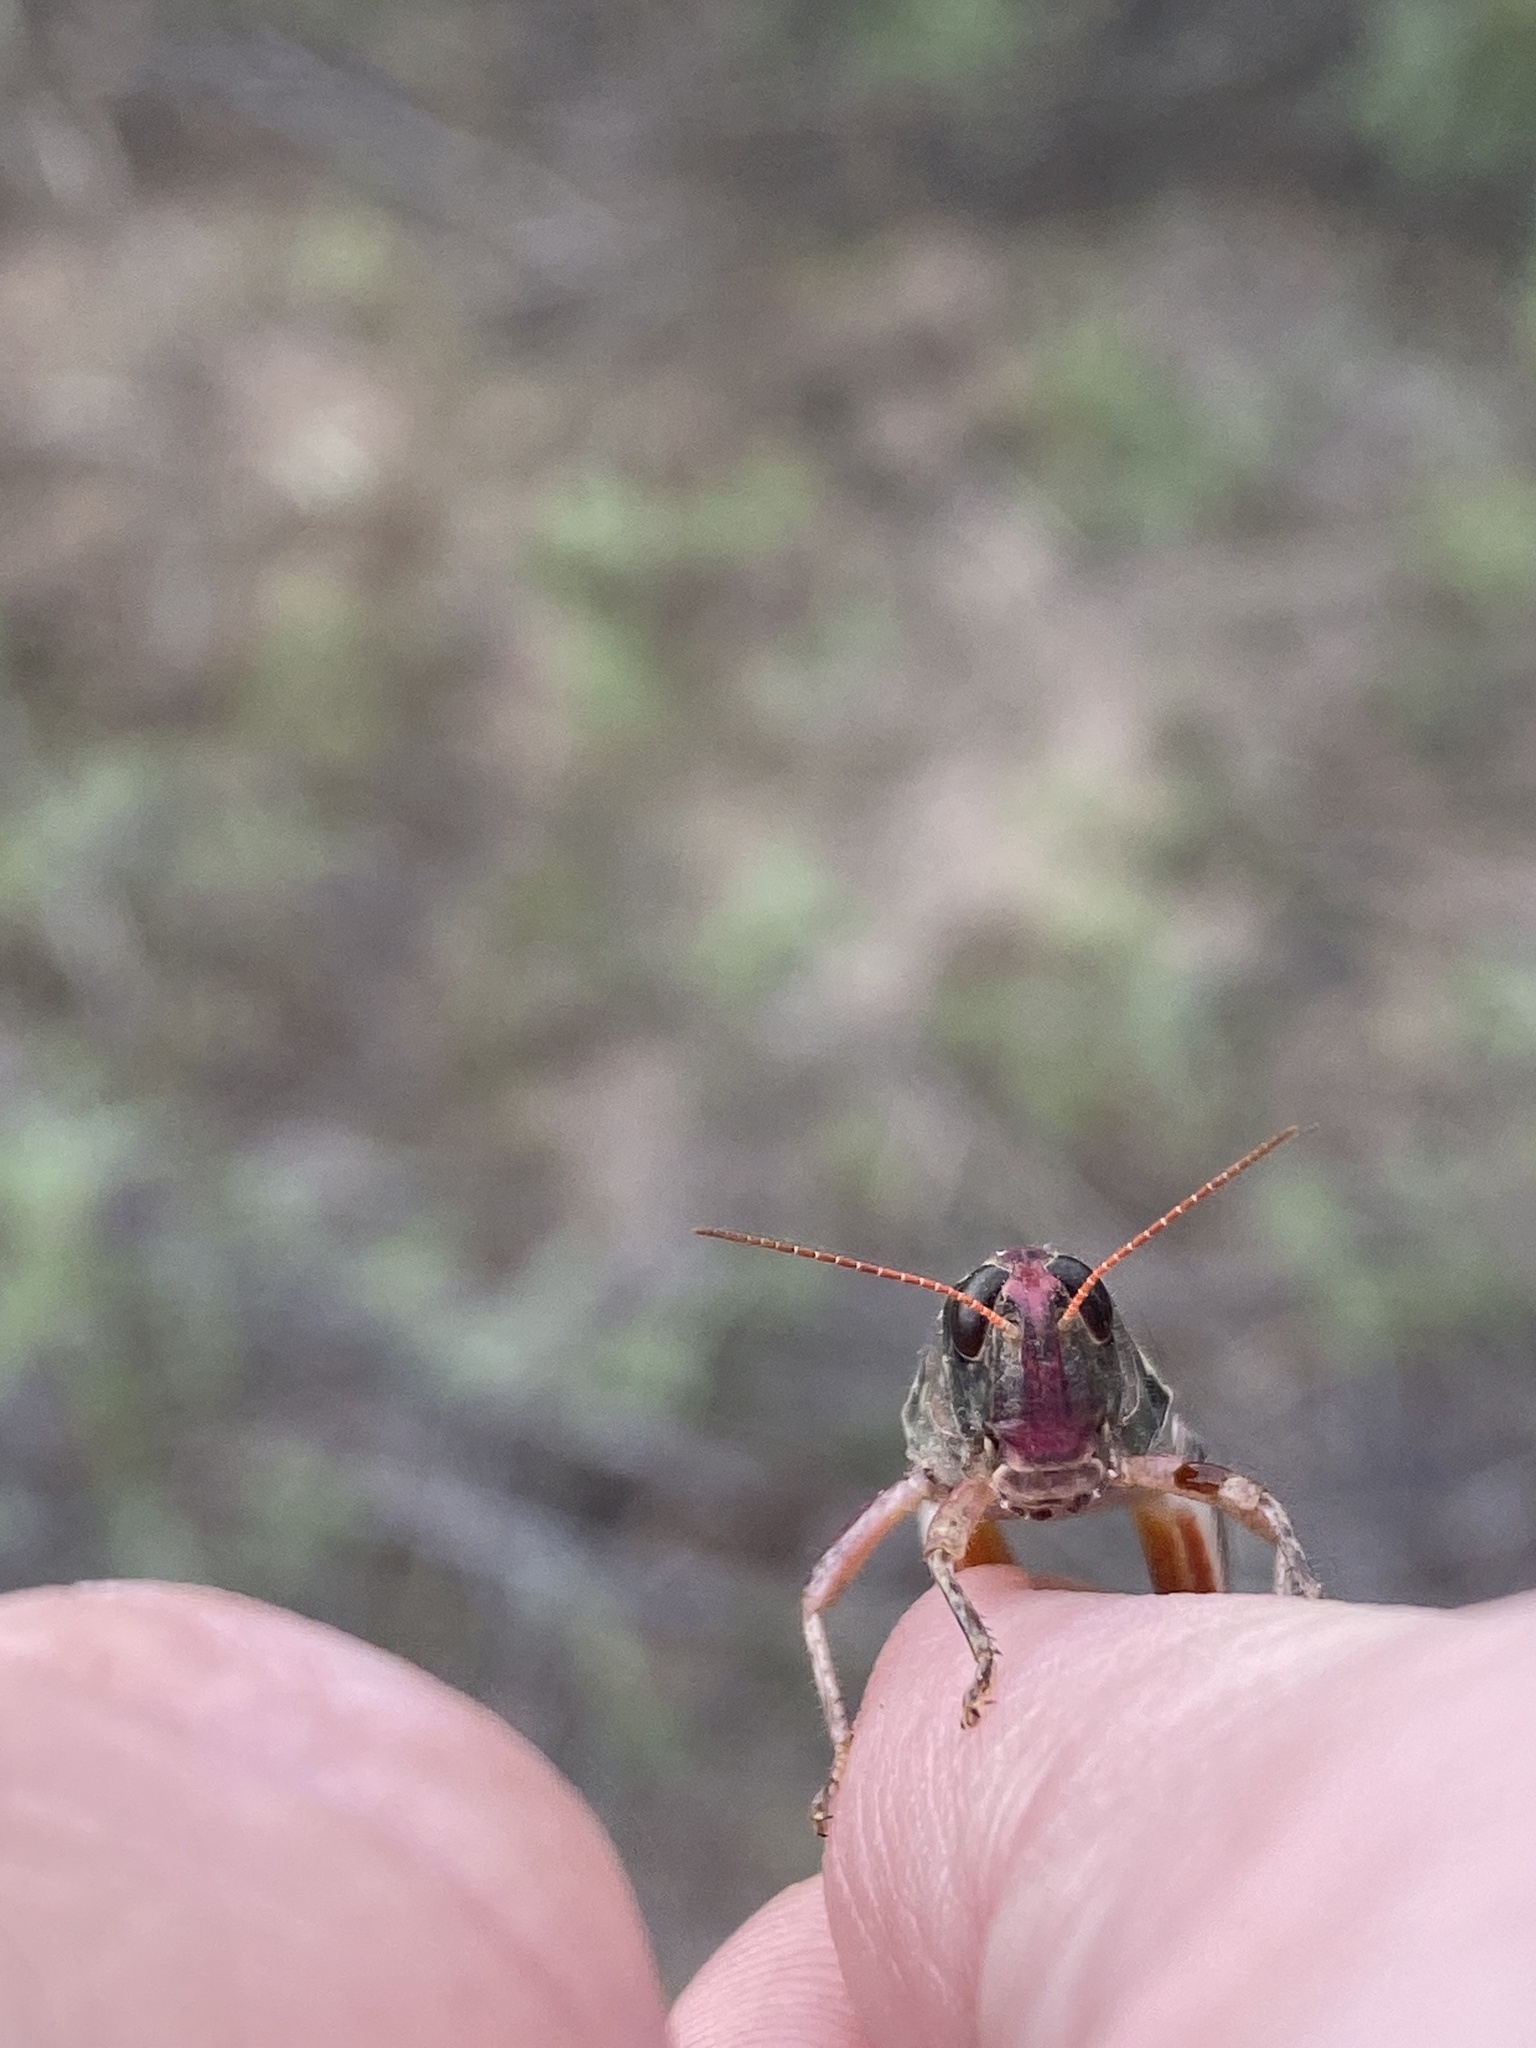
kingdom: Animalia
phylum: Arthropoda
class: Insecta
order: Orthoptera
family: Acrididae
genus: Melanoplus
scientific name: Melanoplus lakinus
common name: Lakin grasshopper
